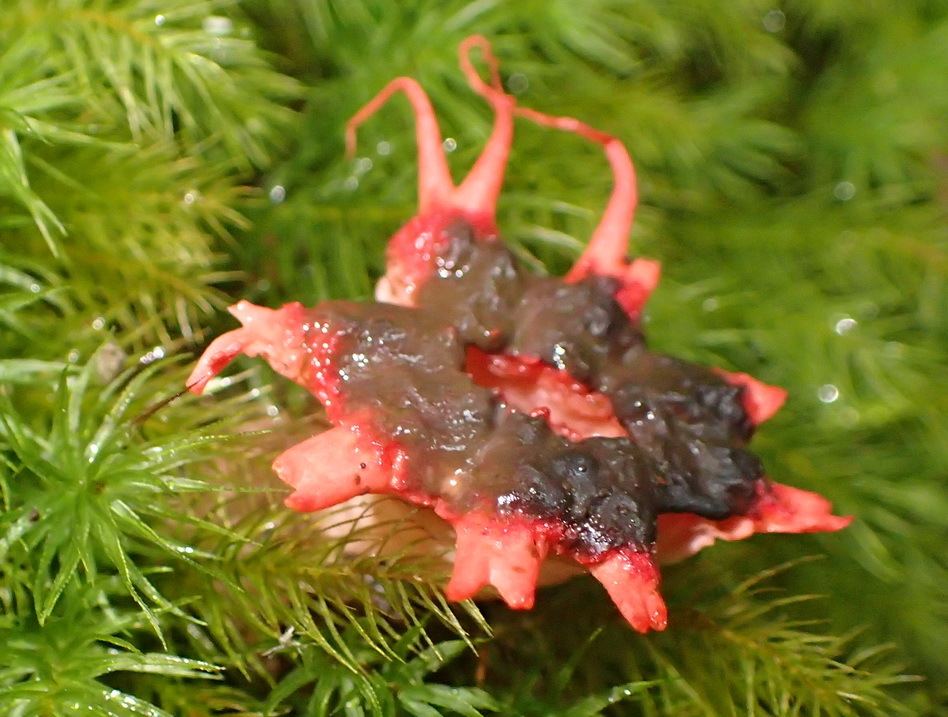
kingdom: Fungi
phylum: Basidiomycota
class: Agaricomycetes
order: Phallales
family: Phallaceae
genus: Aseroe
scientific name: Aseroe rubra
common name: Starfish fungus
